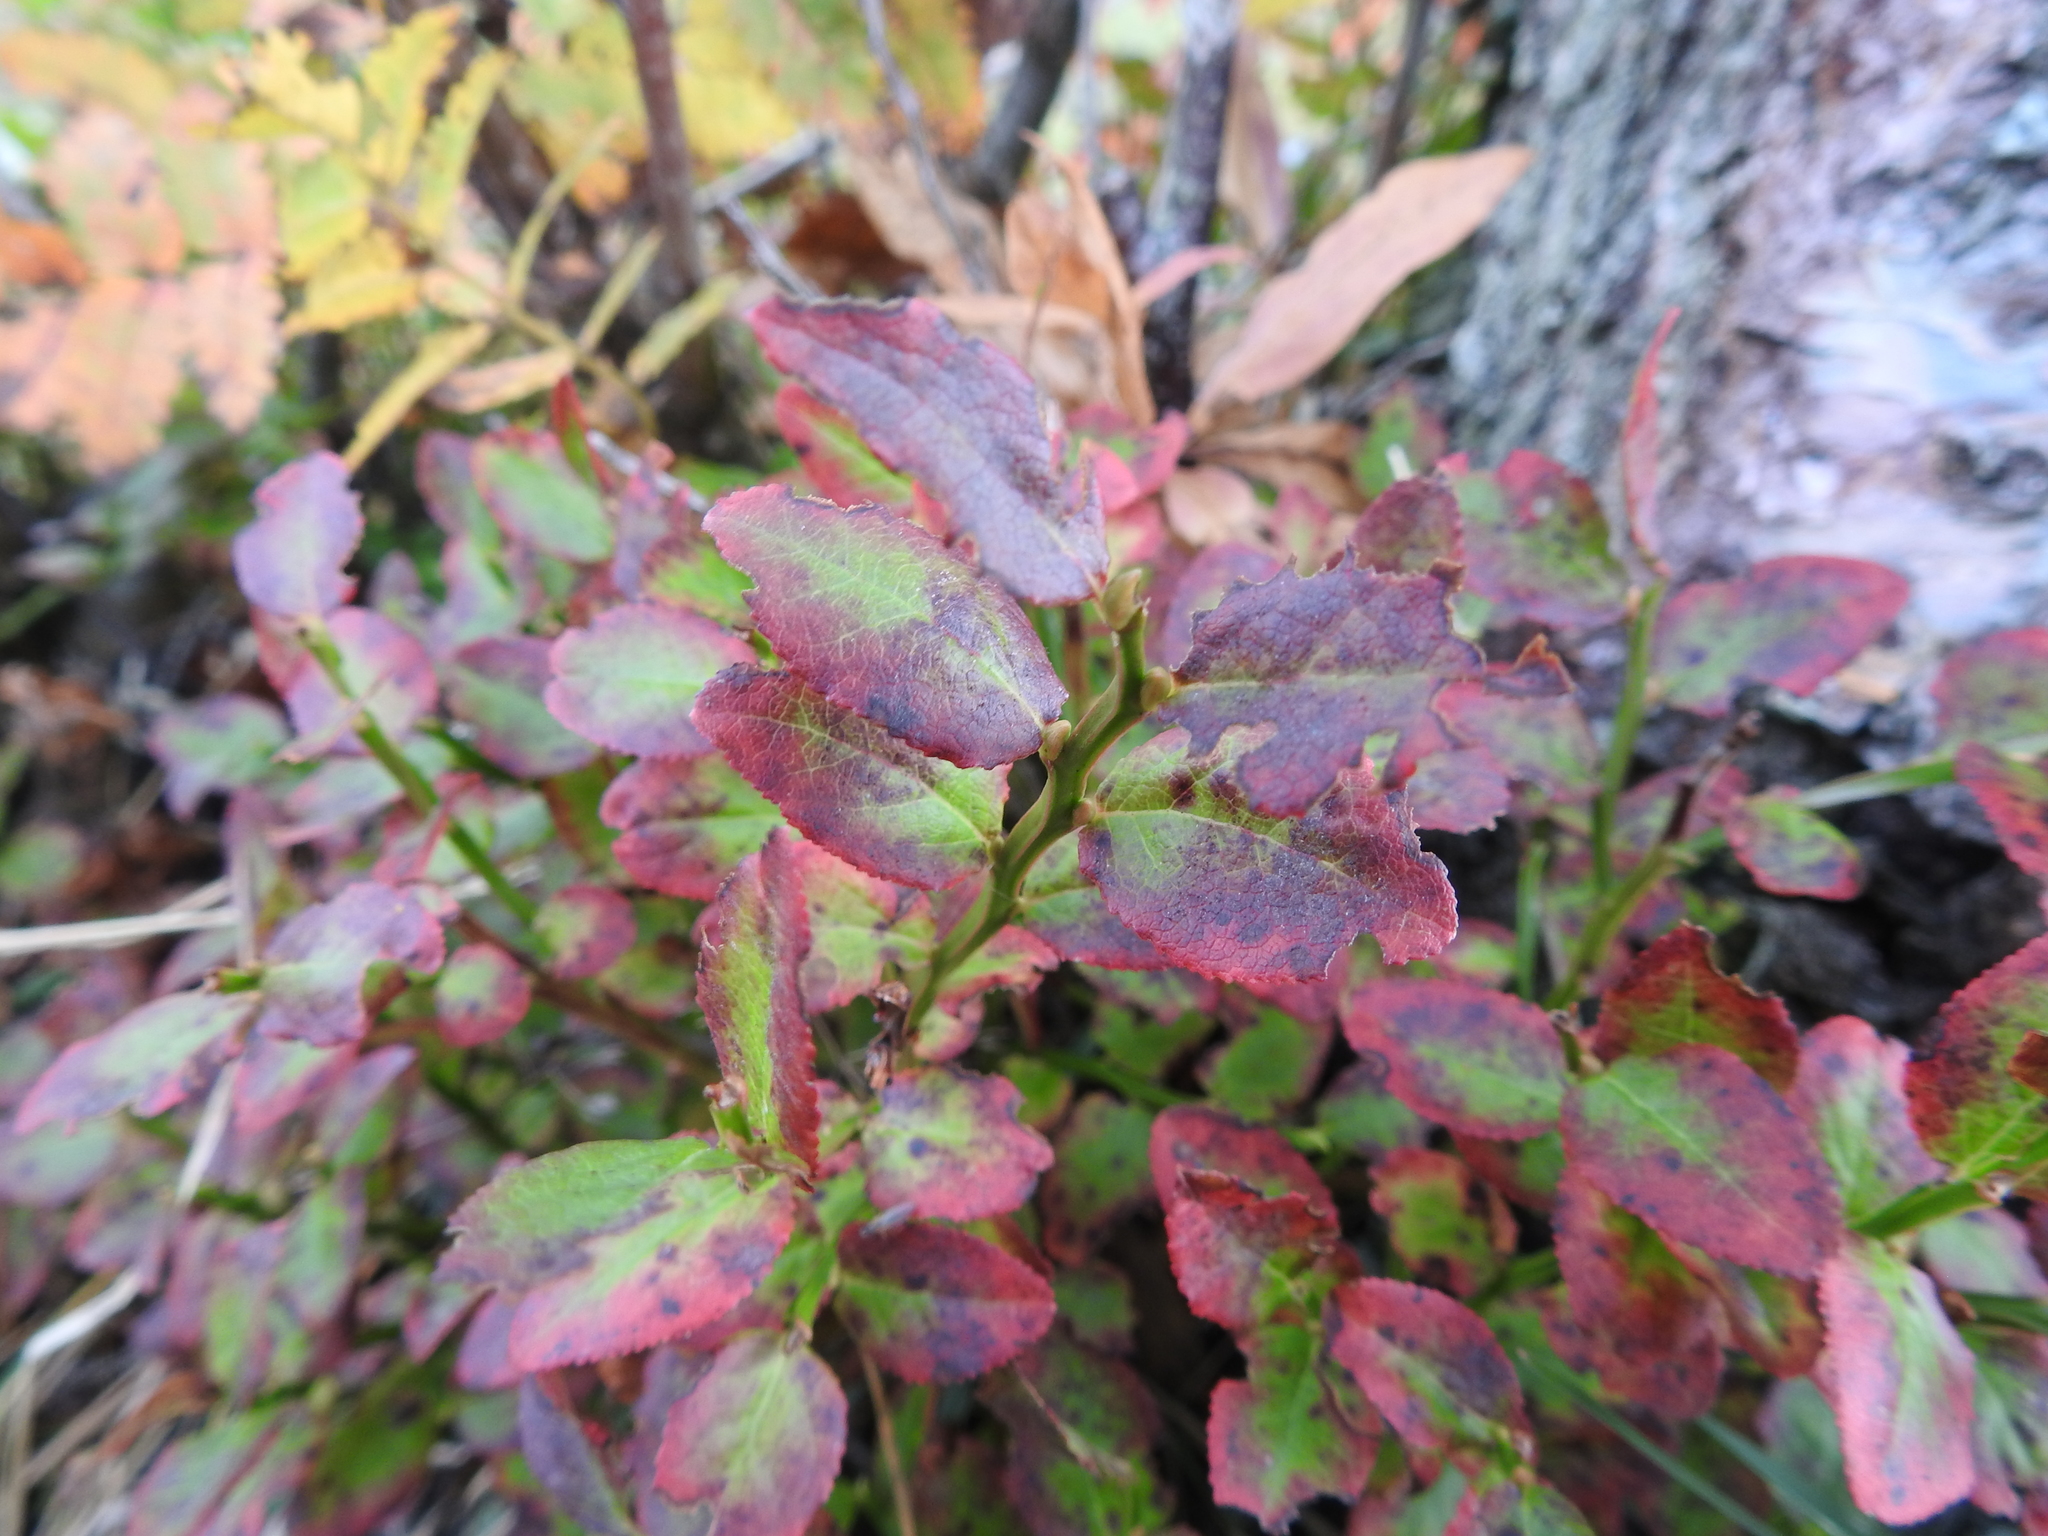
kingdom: Plantae
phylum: Tracheophyta
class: Magnoliopsida
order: Ericales
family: Ericaceae
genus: Vaccinium
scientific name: Vaccinium myrtillus
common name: Bilberry
